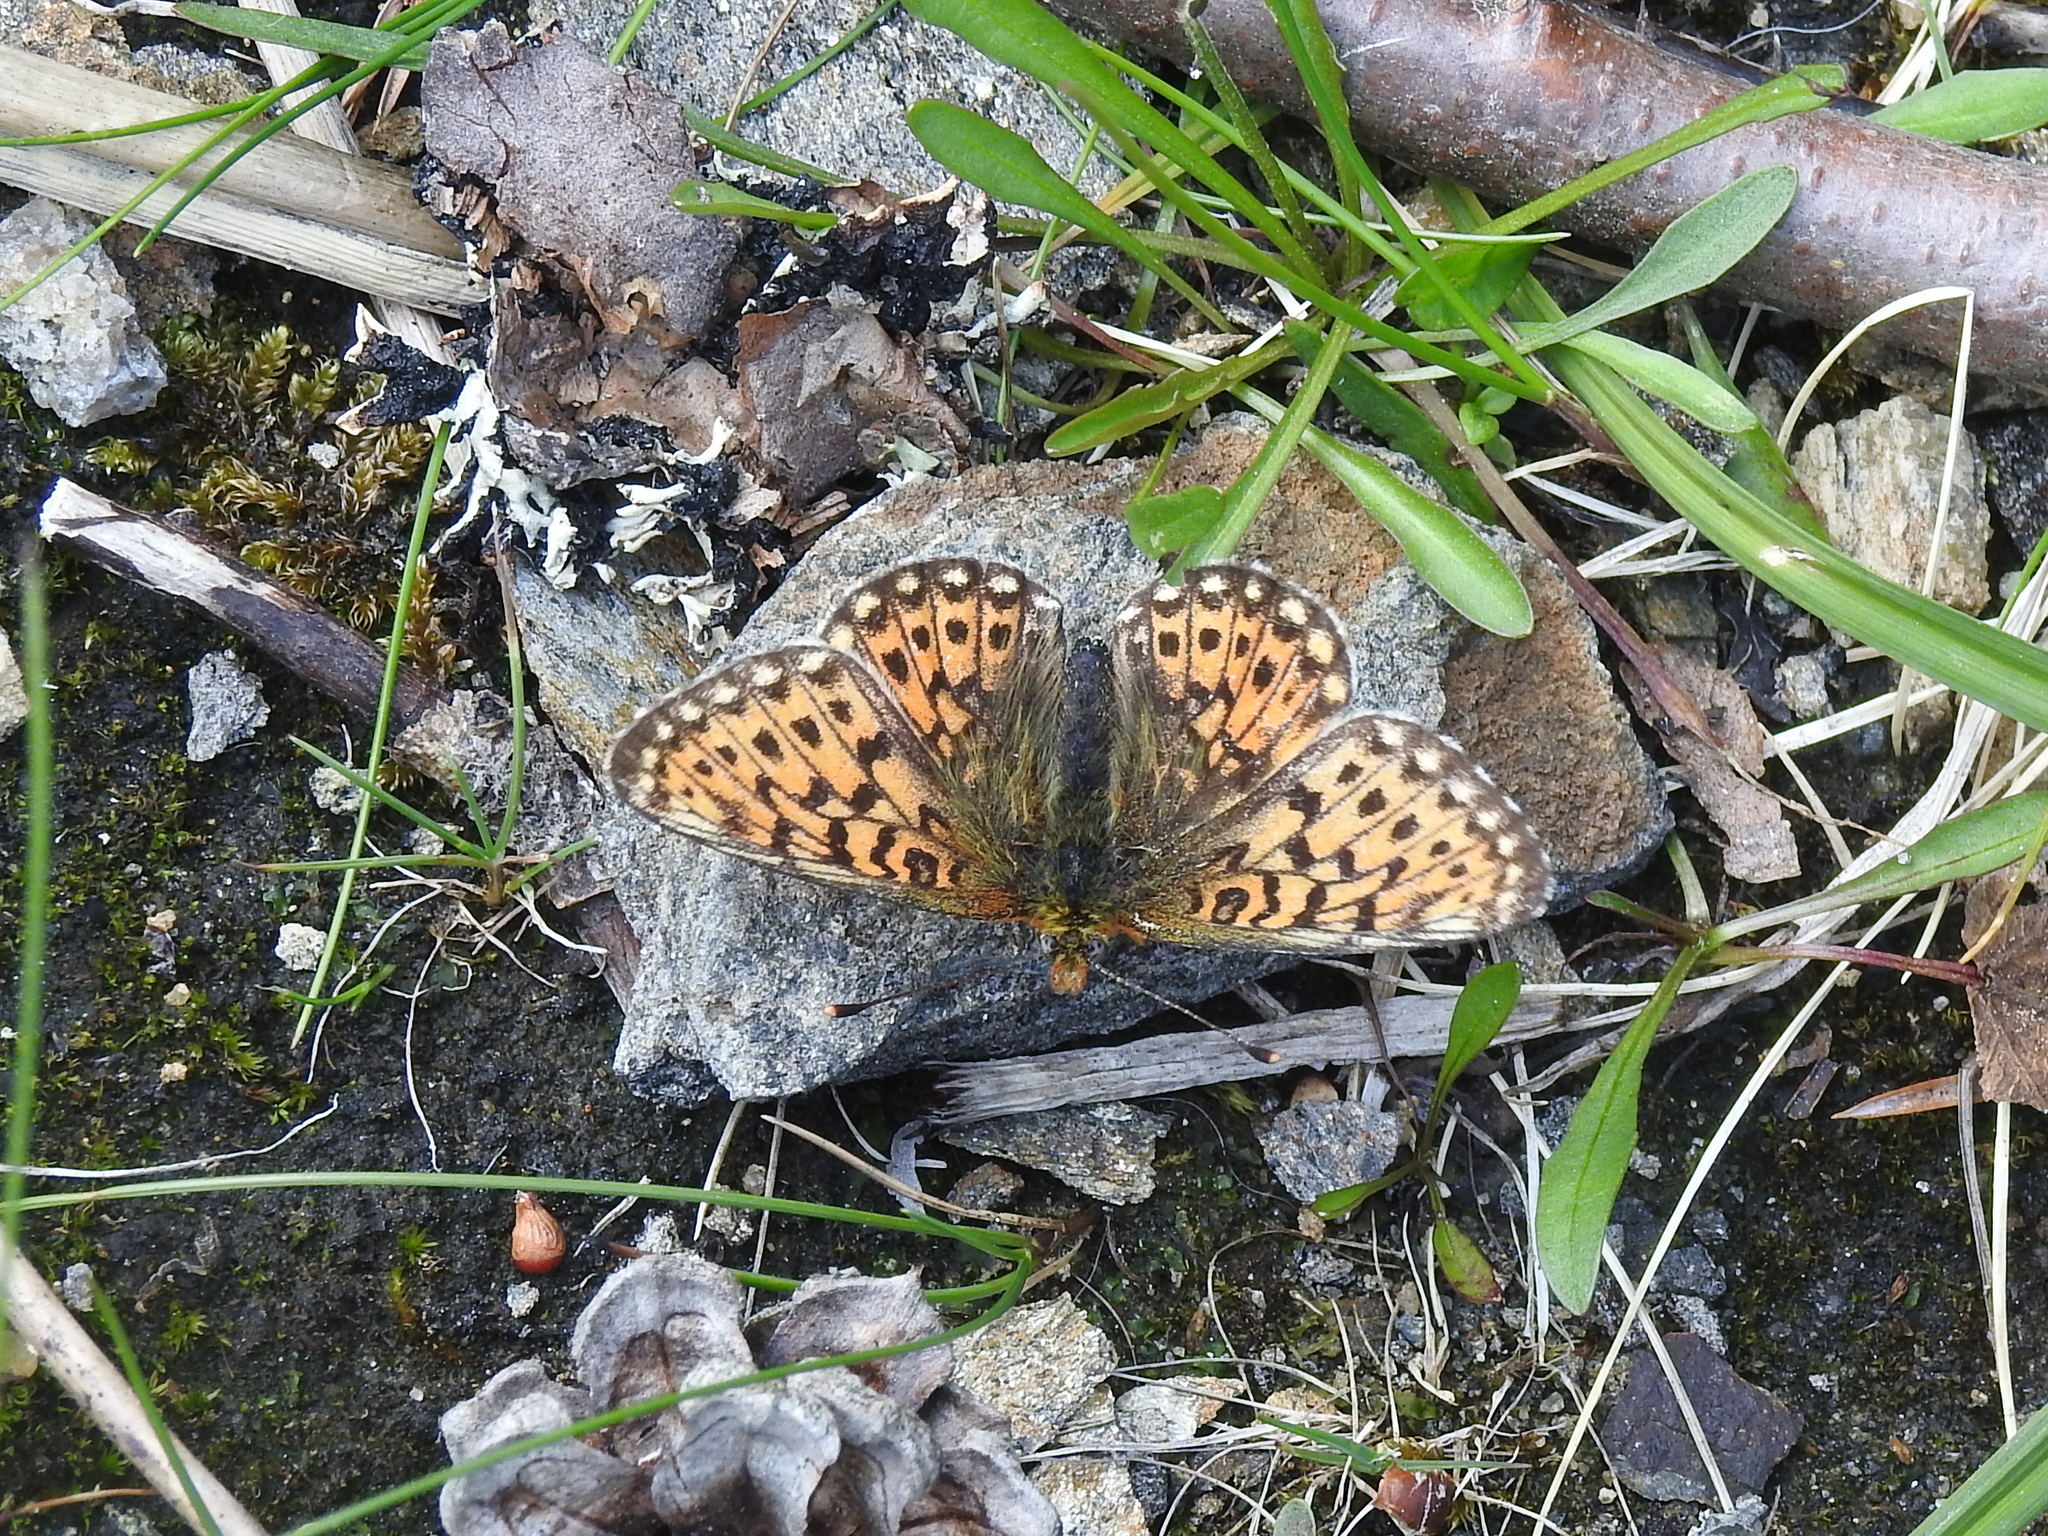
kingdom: Animalia
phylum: Arthropoda
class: Insecta
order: Lepidoptera
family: Nymphalidae
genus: Clossiana
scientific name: Clossiana euphrosyne
